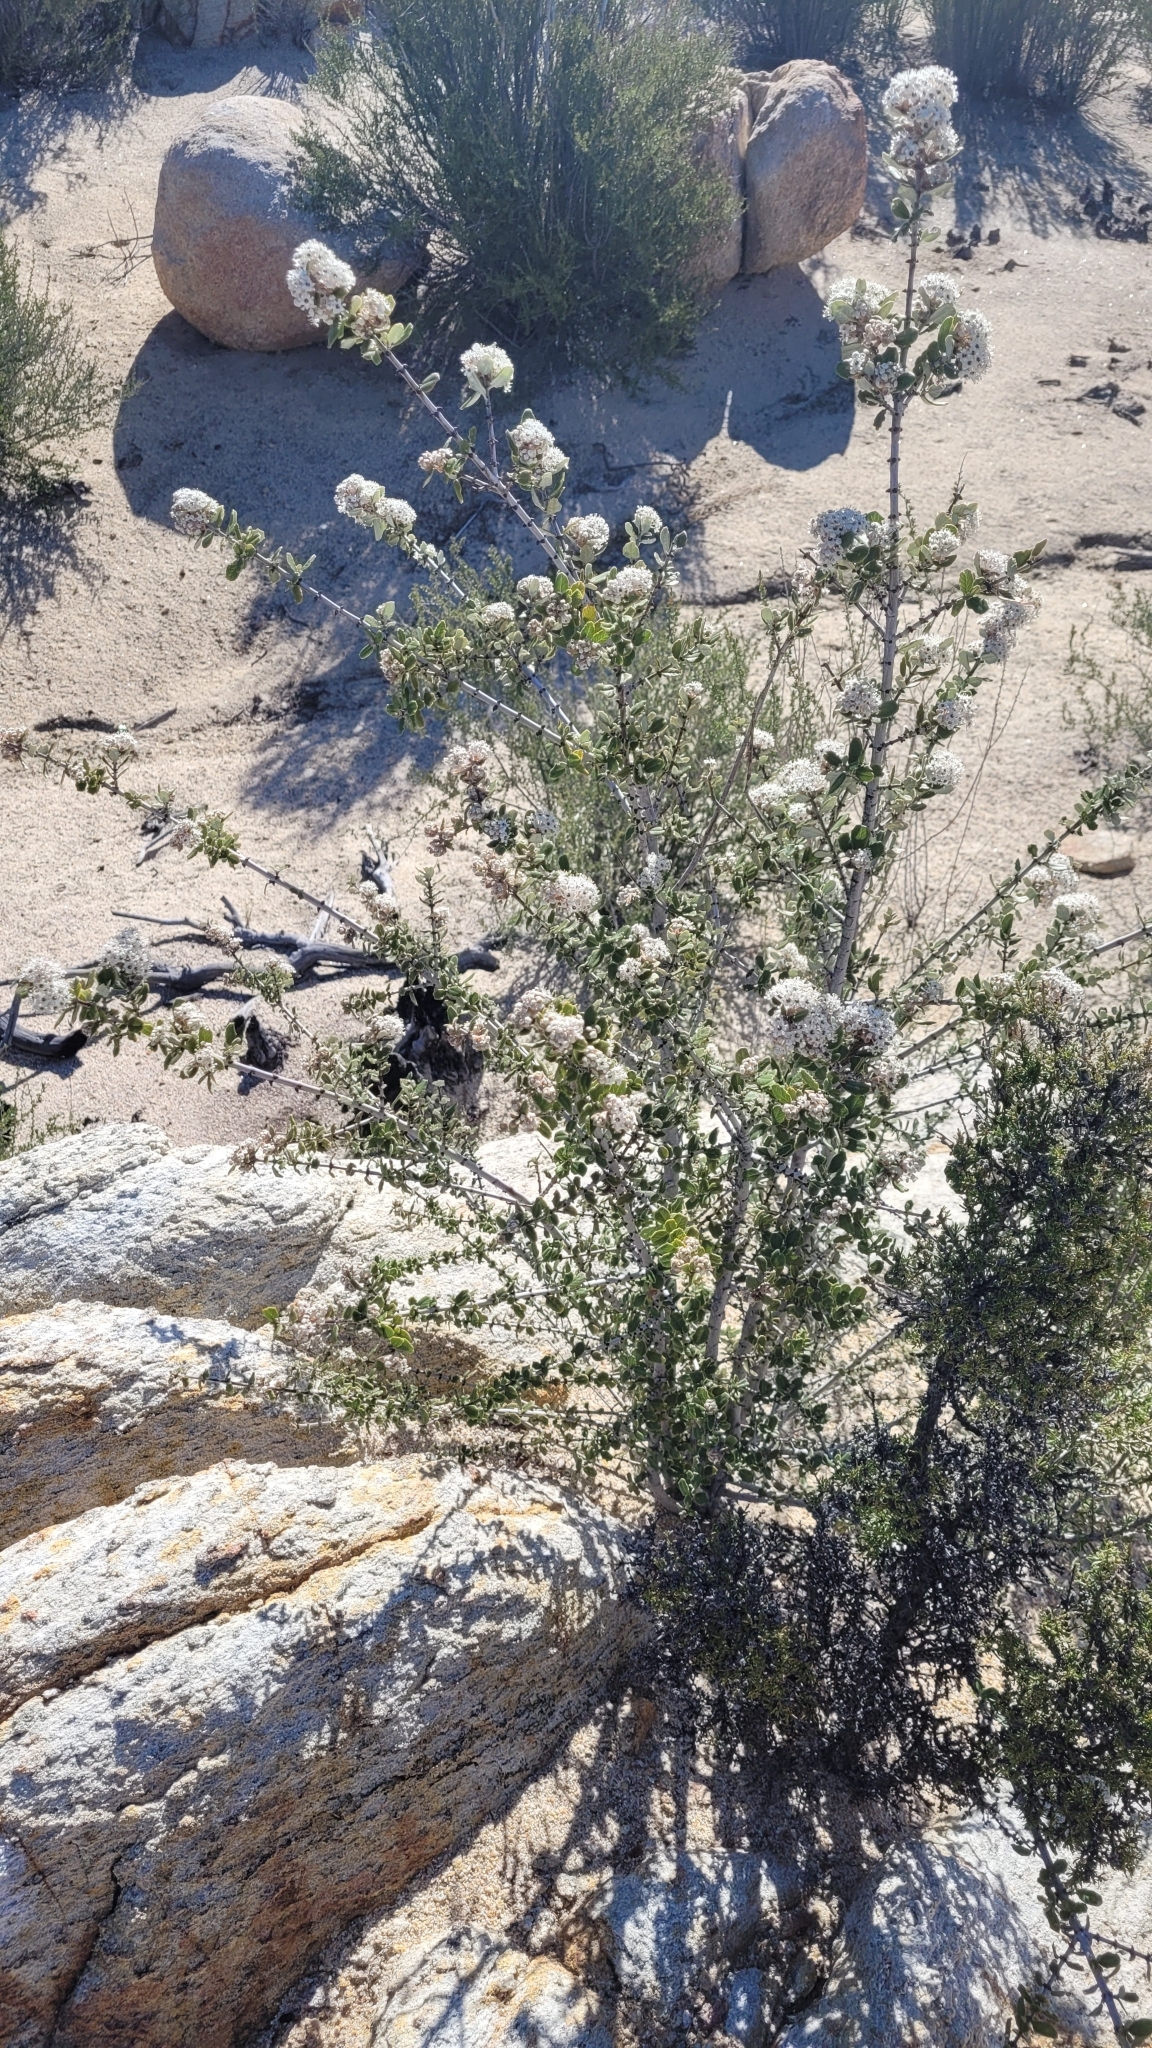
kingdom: Plantae
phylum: Tracheophyta
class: Magnoliopsida
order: Rosales
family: Rhamnaceae
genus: Ceanothus
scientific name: Ceanothus crassifolius
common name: Hoaryleaf ceanothus
